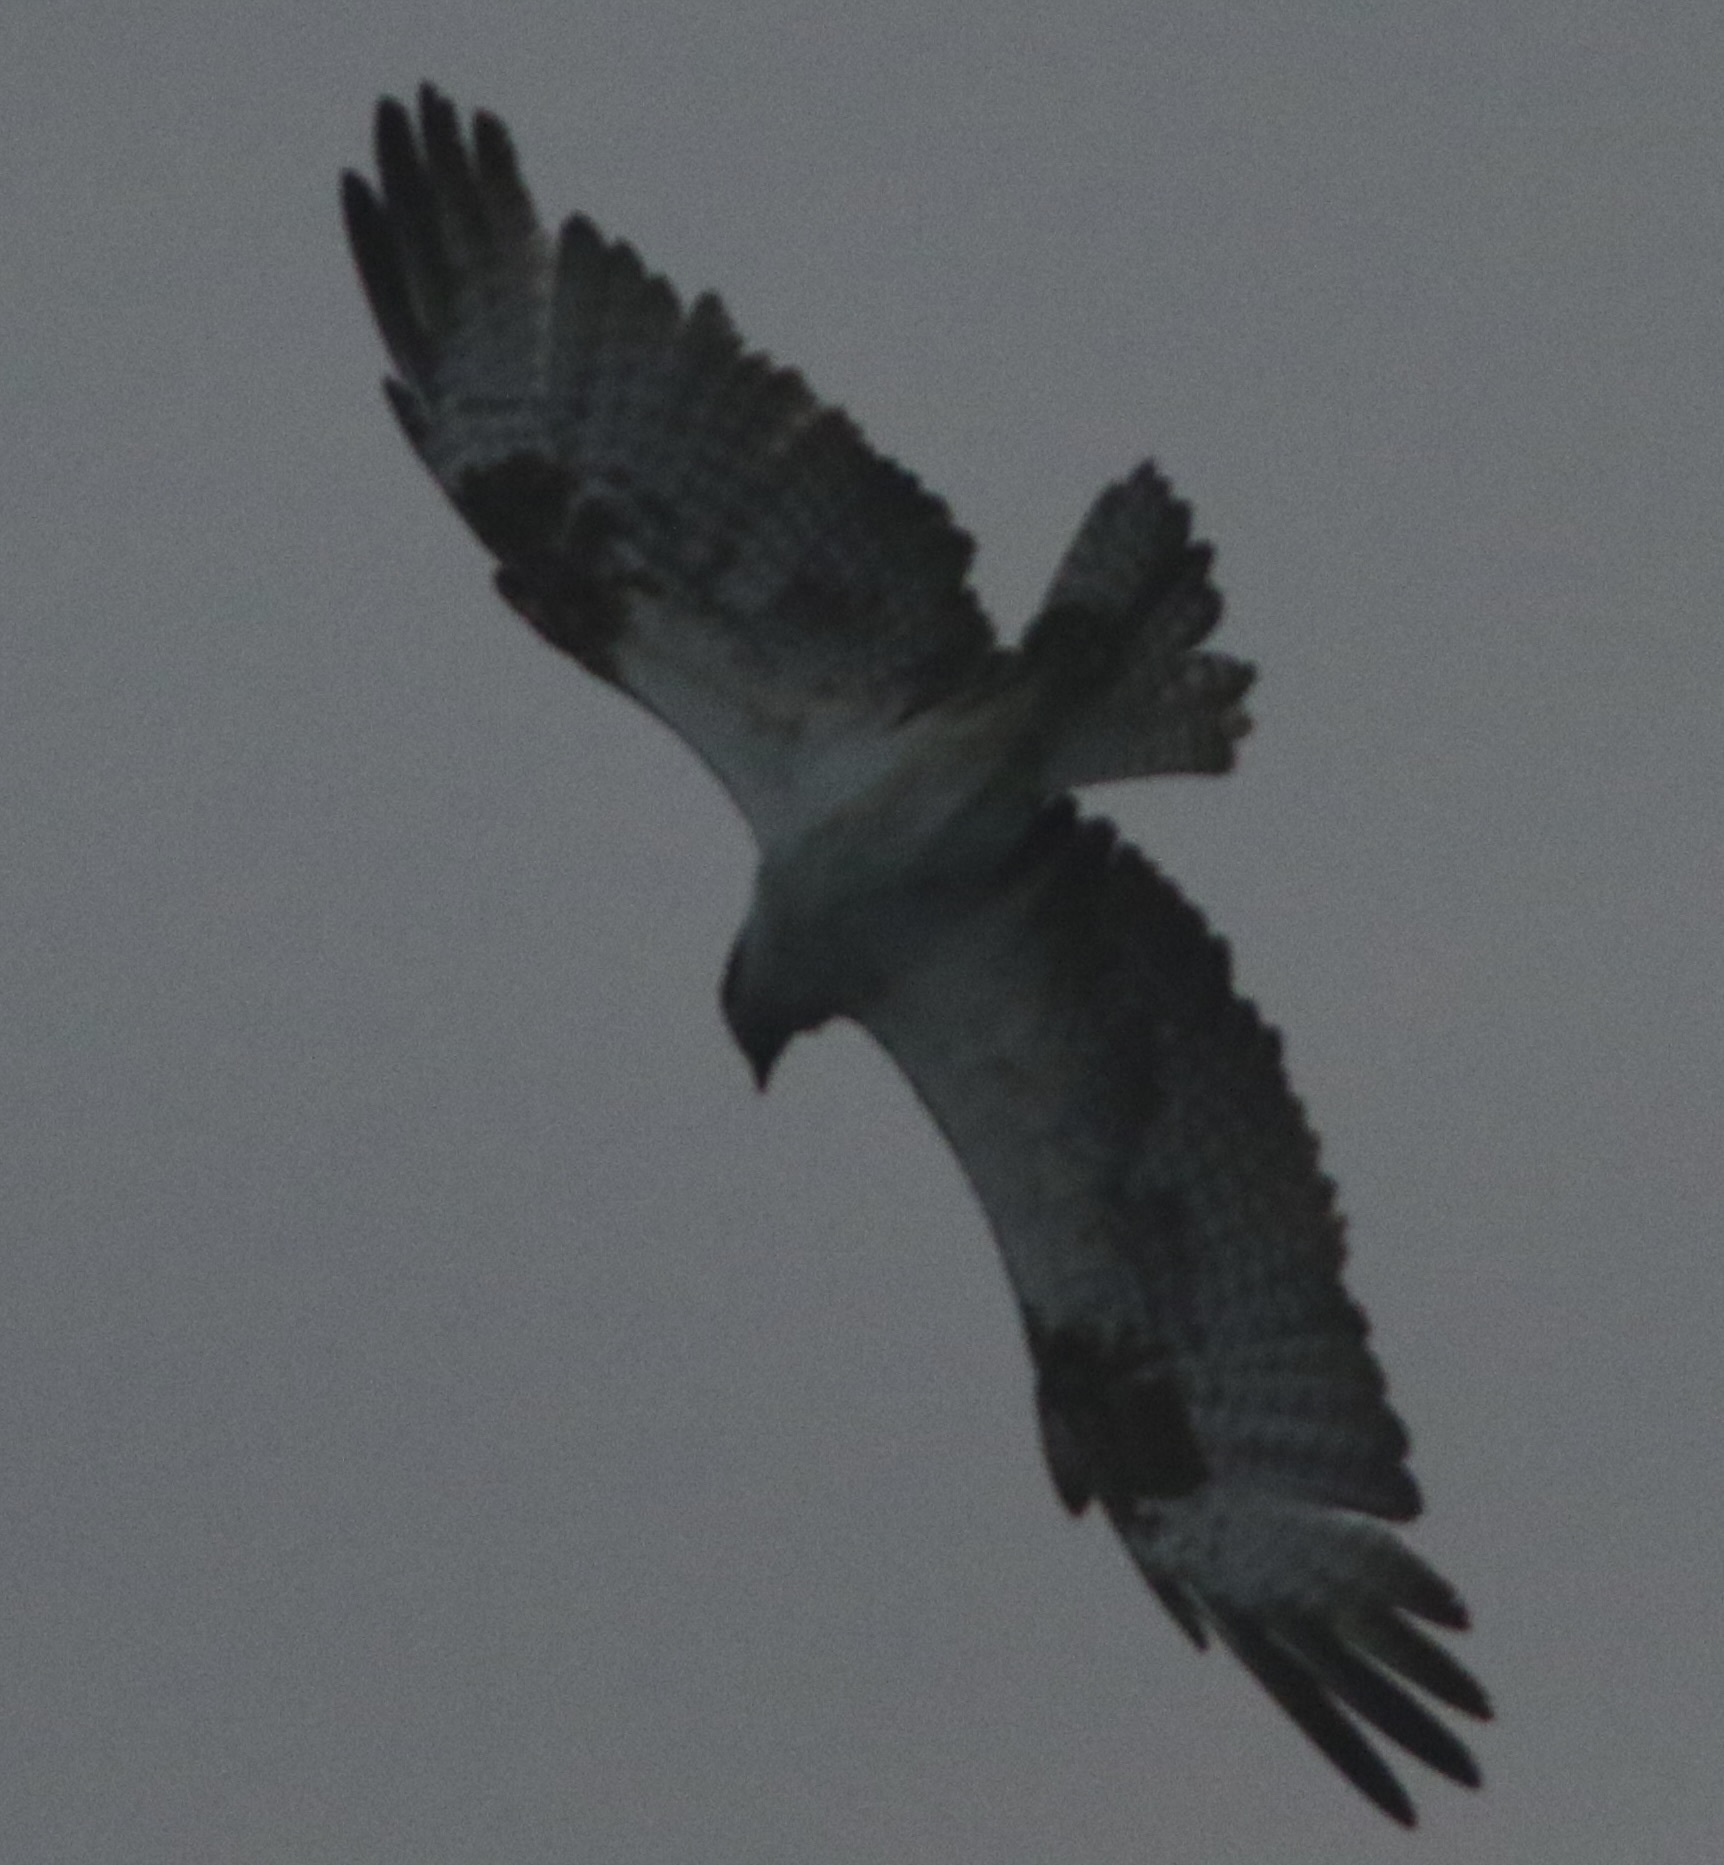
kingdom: Animalia
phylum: Chordata
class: Aves
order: Accipitriformes
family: Pandionidae
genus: Pandion
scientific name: Pandion haliaetus
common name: Osprey
